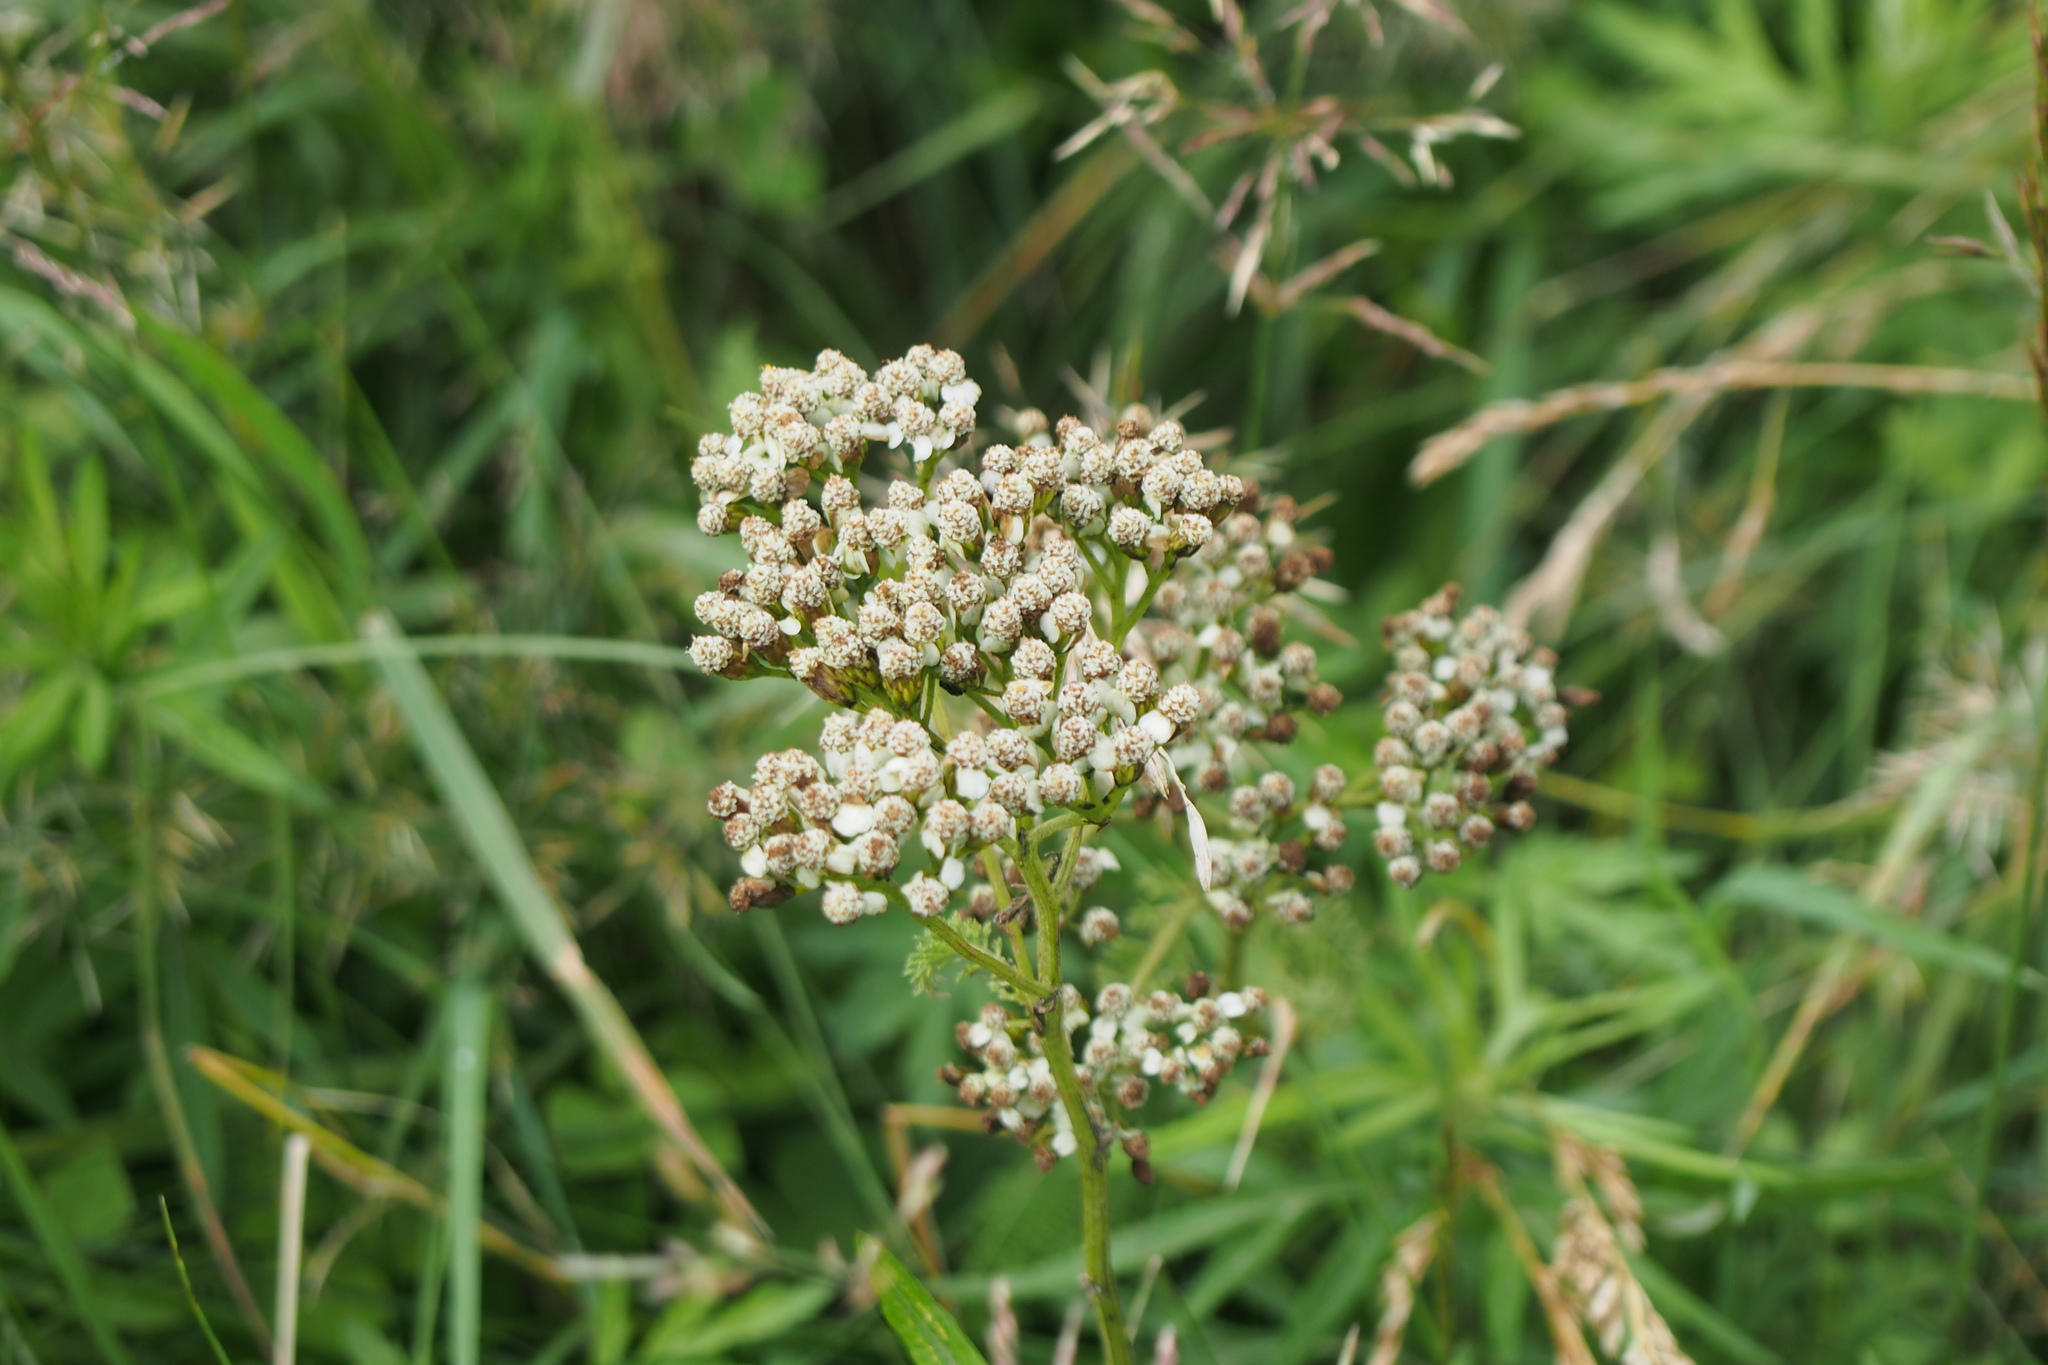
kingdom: Plantae
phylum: Tracheophyta
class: Magnoliopsida
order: Asterales
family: Asteraceae
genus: Achillea
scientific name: Achillea millefolium
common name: Yarrow
